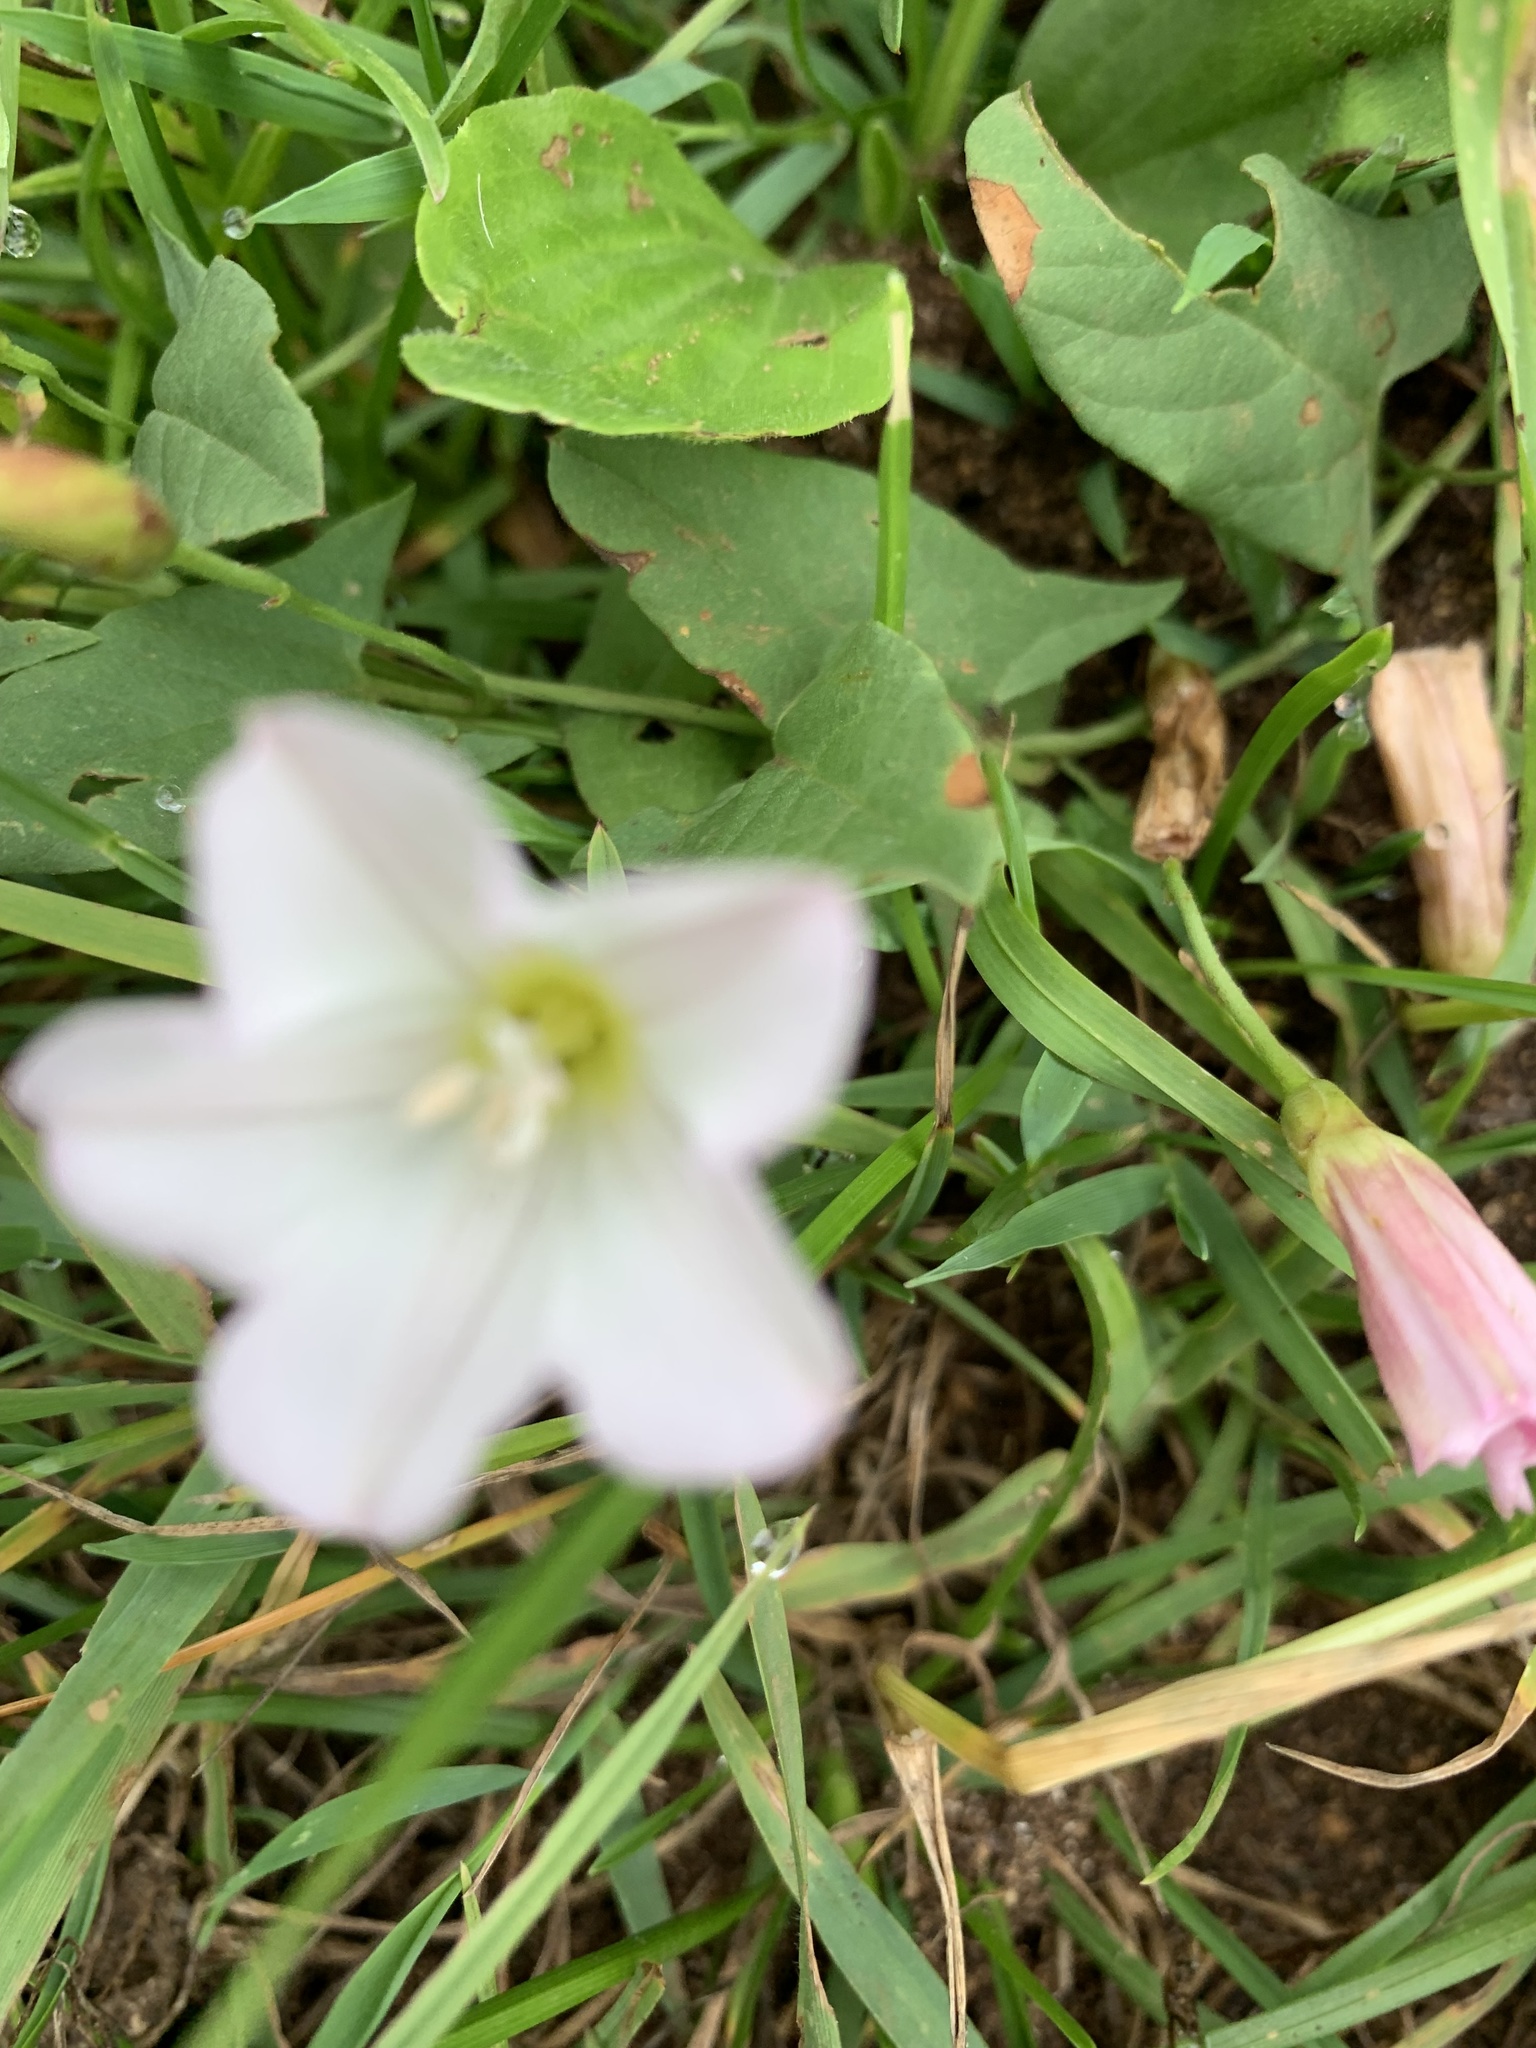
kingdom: Plantae
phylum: Tracheophyta
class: Magnoliopsida
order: Solanales
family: Convolvulaceae
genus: Convolvulus
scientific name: Convolvulus arvensis
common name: Field bindweed
